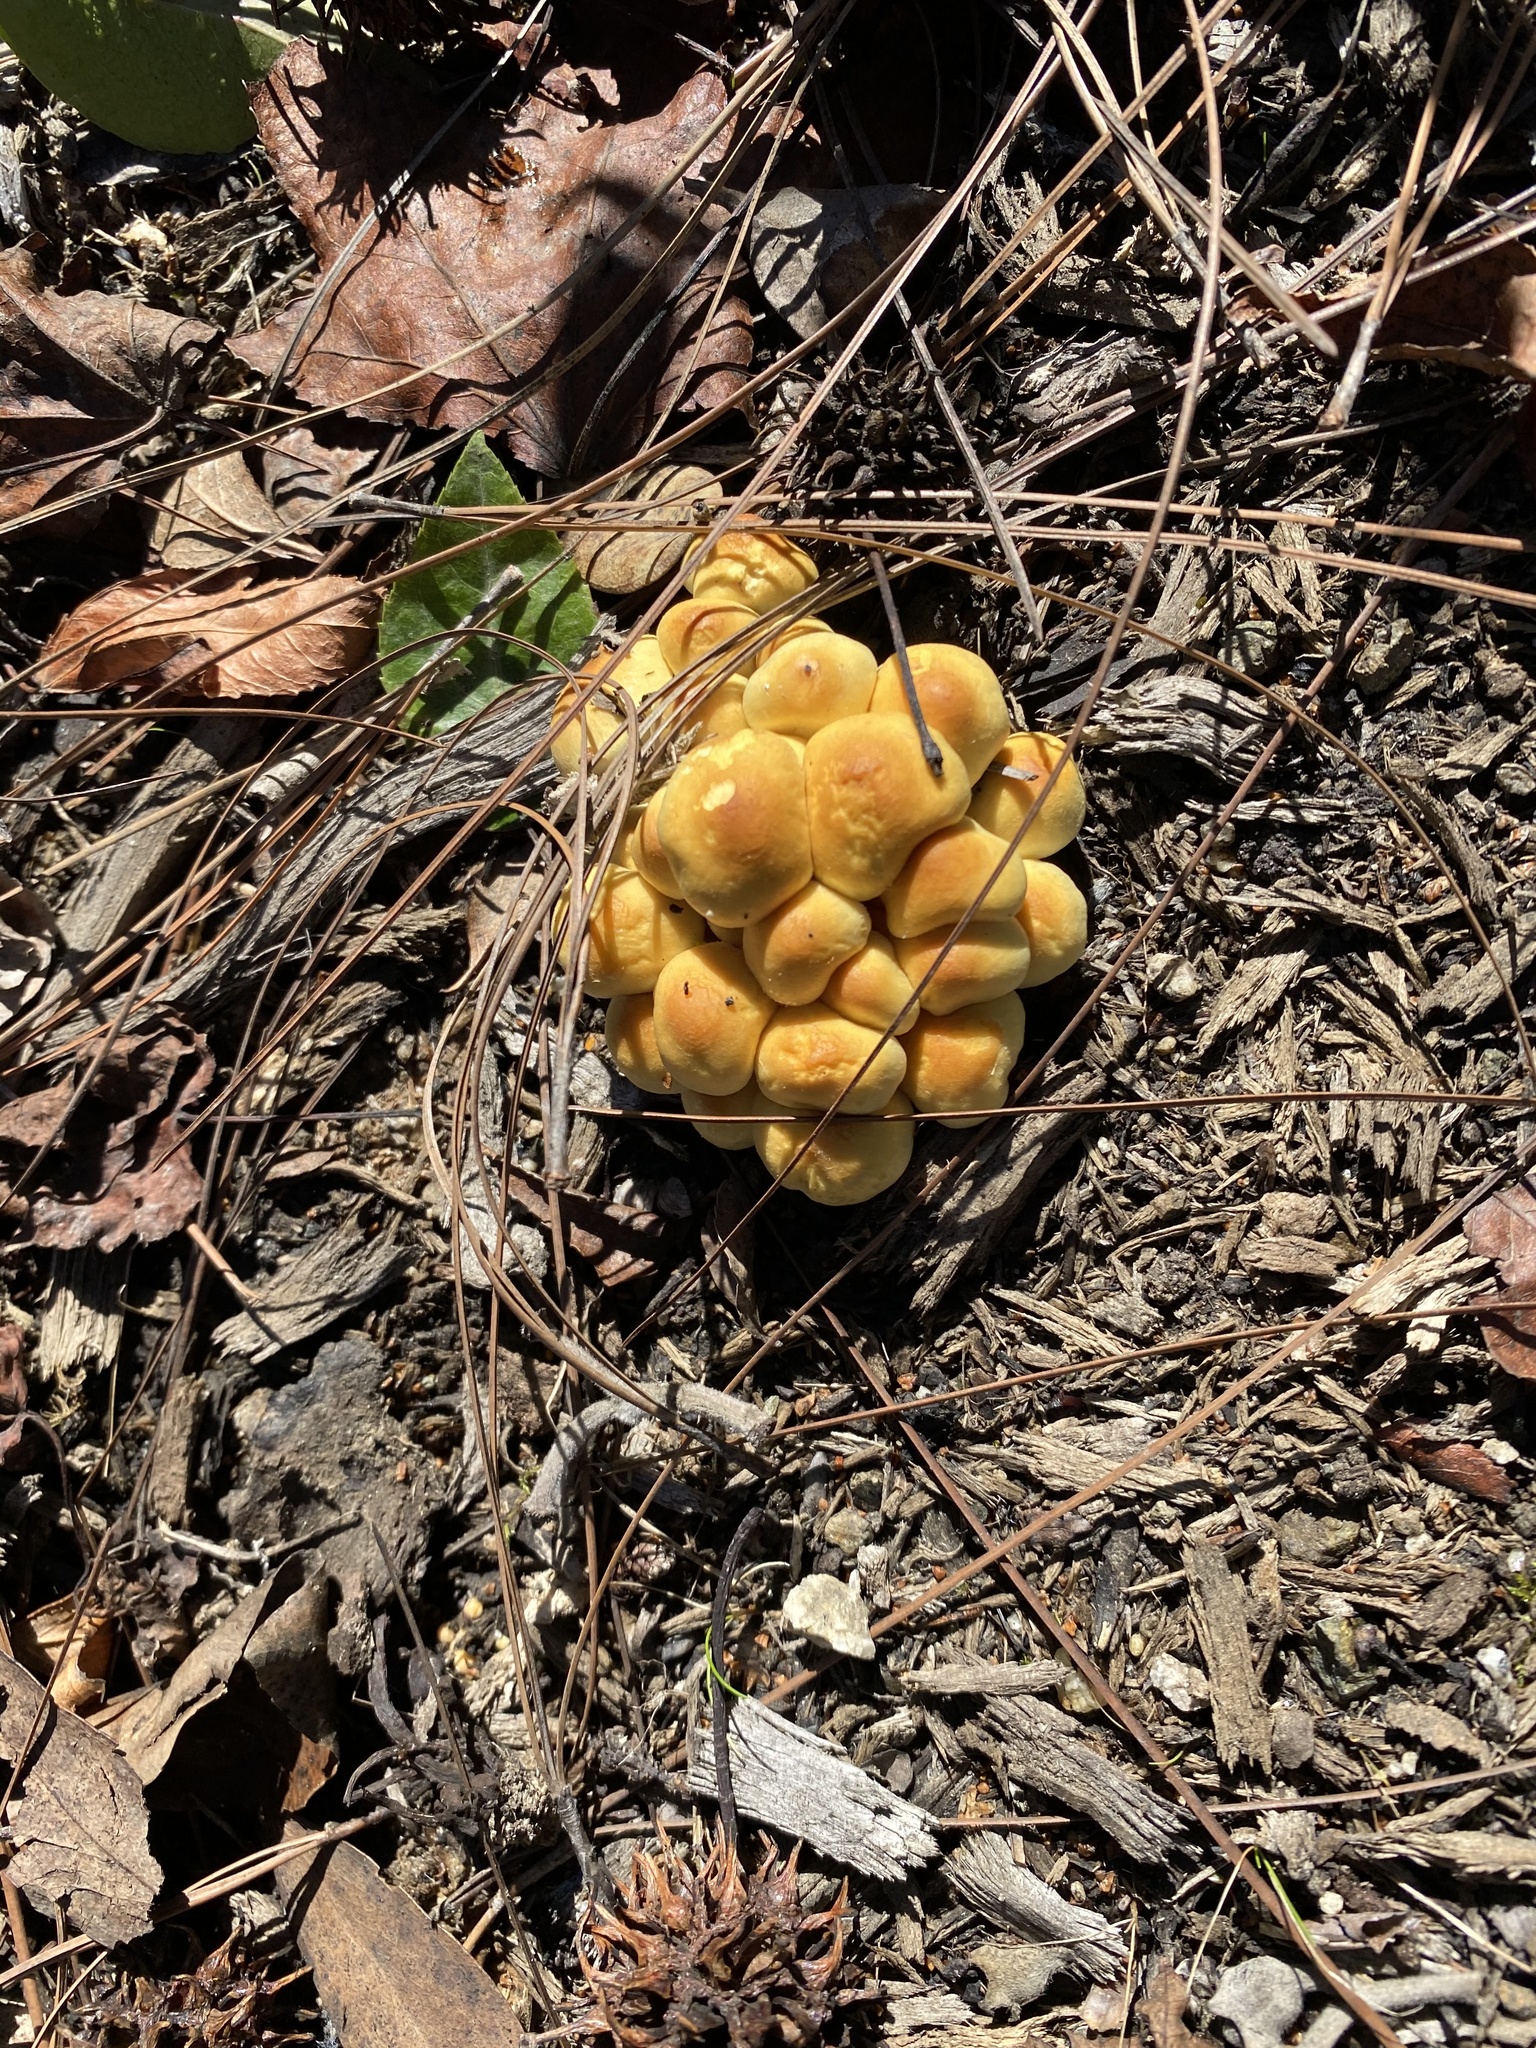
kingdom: Fungi
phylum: Basidiomycota
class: Agaricomycetes
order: Agaricales
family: Strophariaceae
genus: Hypholoma
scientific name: Hypholoma fasciculare
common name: Sulphur tuft
